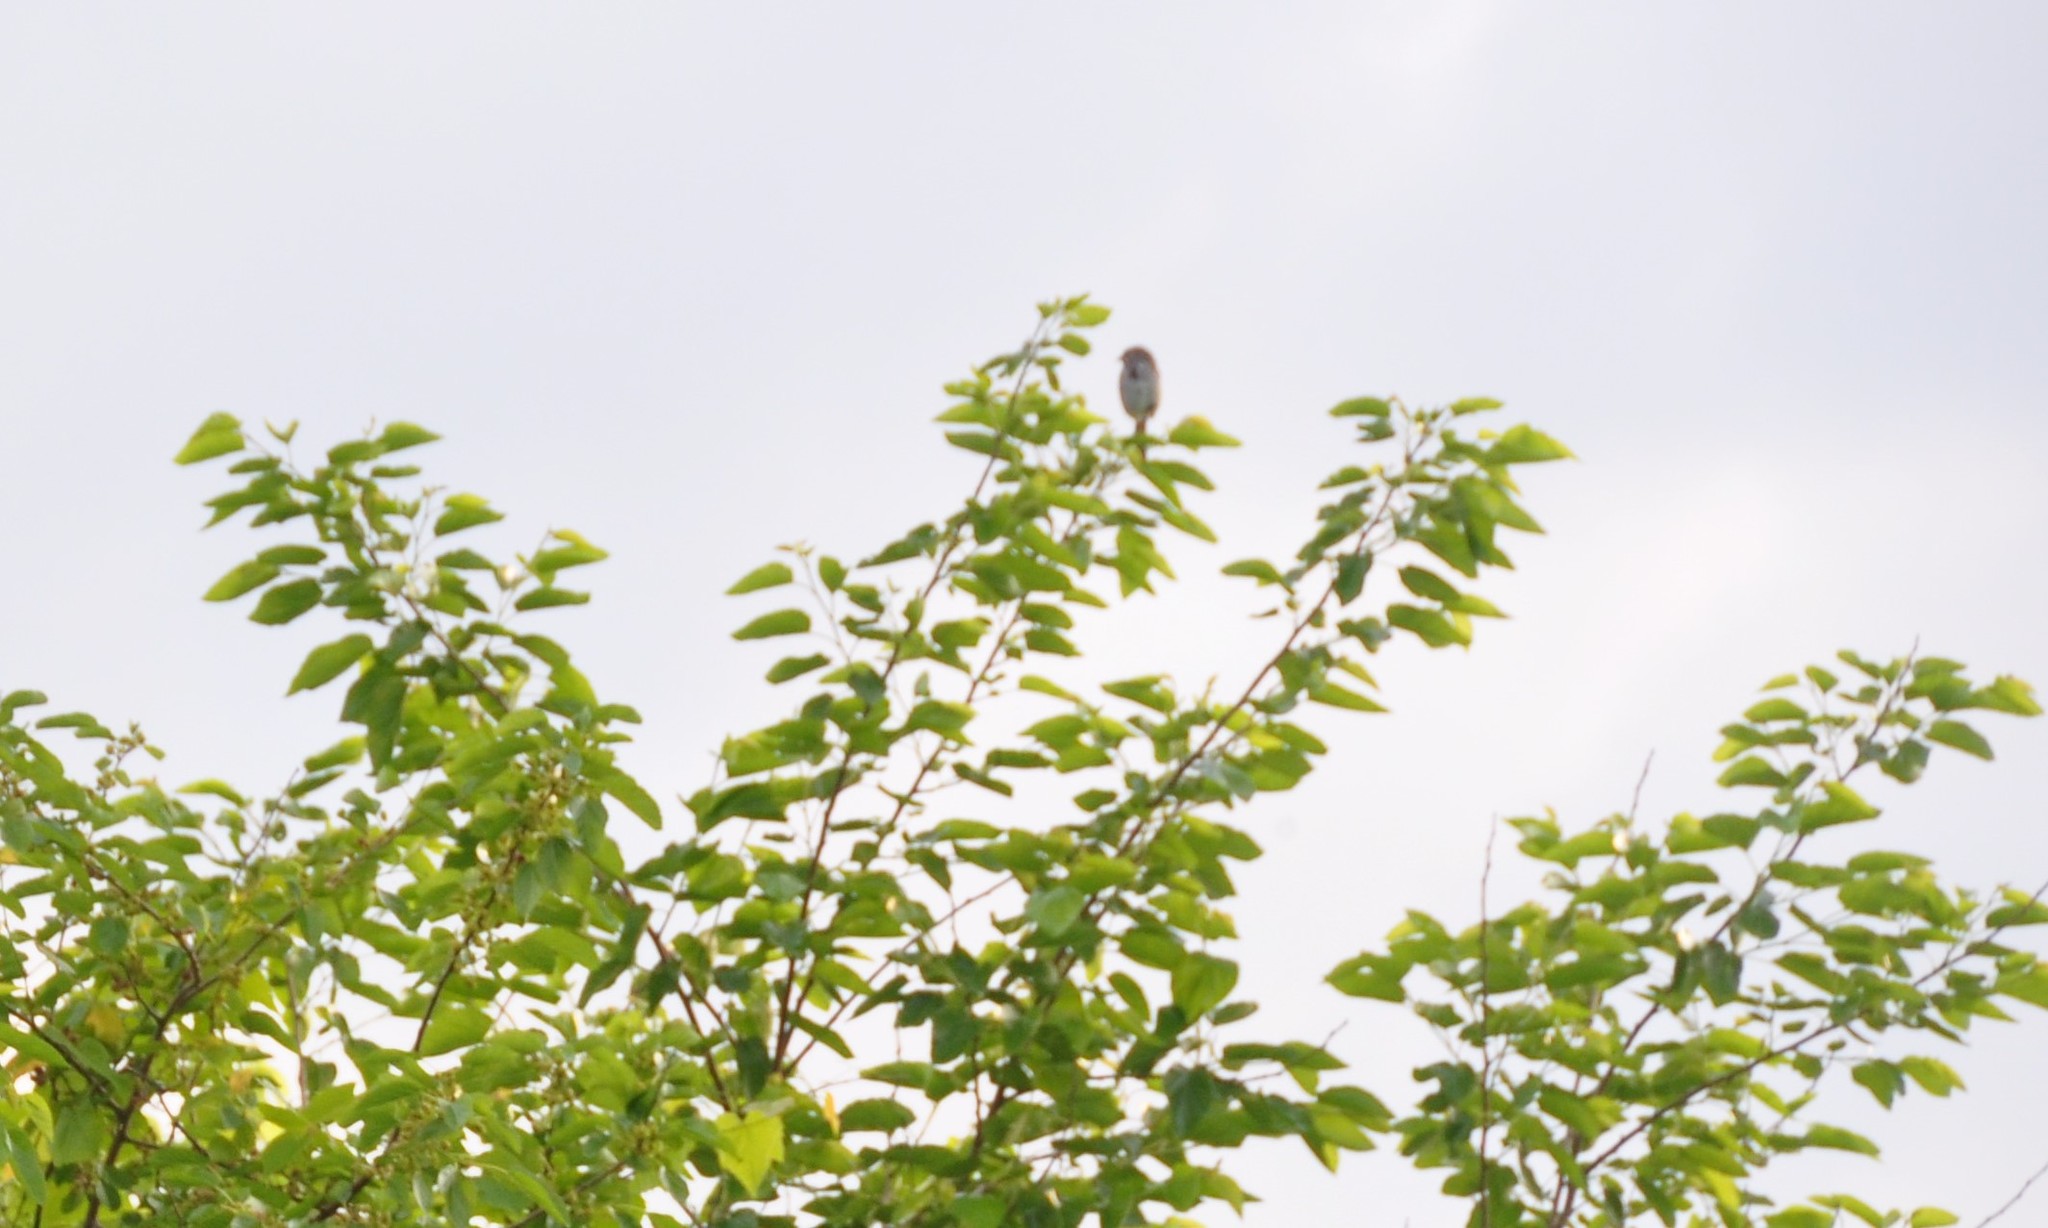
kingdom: Animalia
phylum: Chordata
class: Aves
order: Passeriformes
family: Passeridae
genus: Passer
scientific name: Passer domesticus
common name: House sparrow
